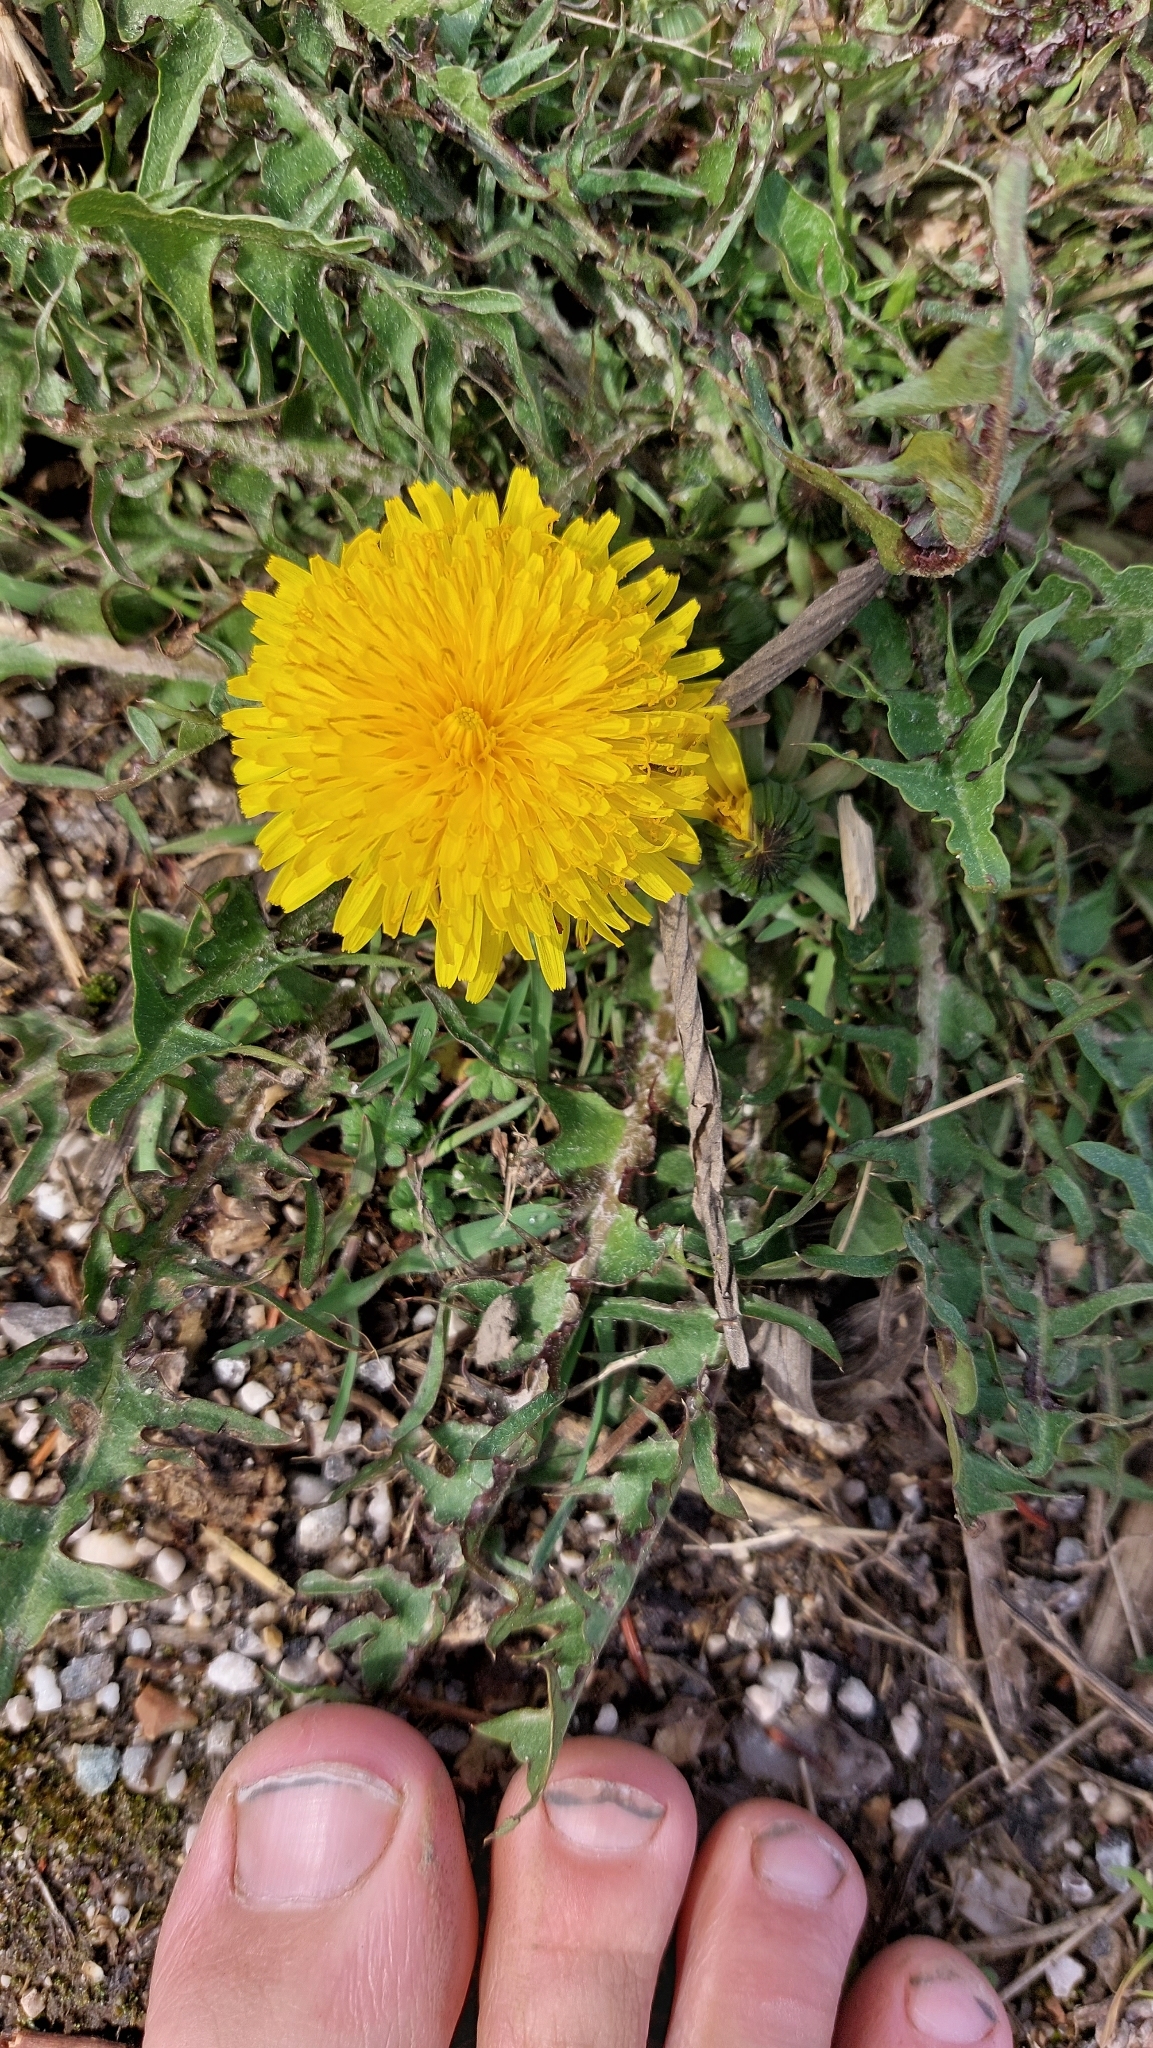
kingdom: Plantae
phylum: Tracheophyta
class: Magnoliopsida
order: Asterales
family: Asteraceae
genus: Taraxacum
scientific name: Taraxacum
